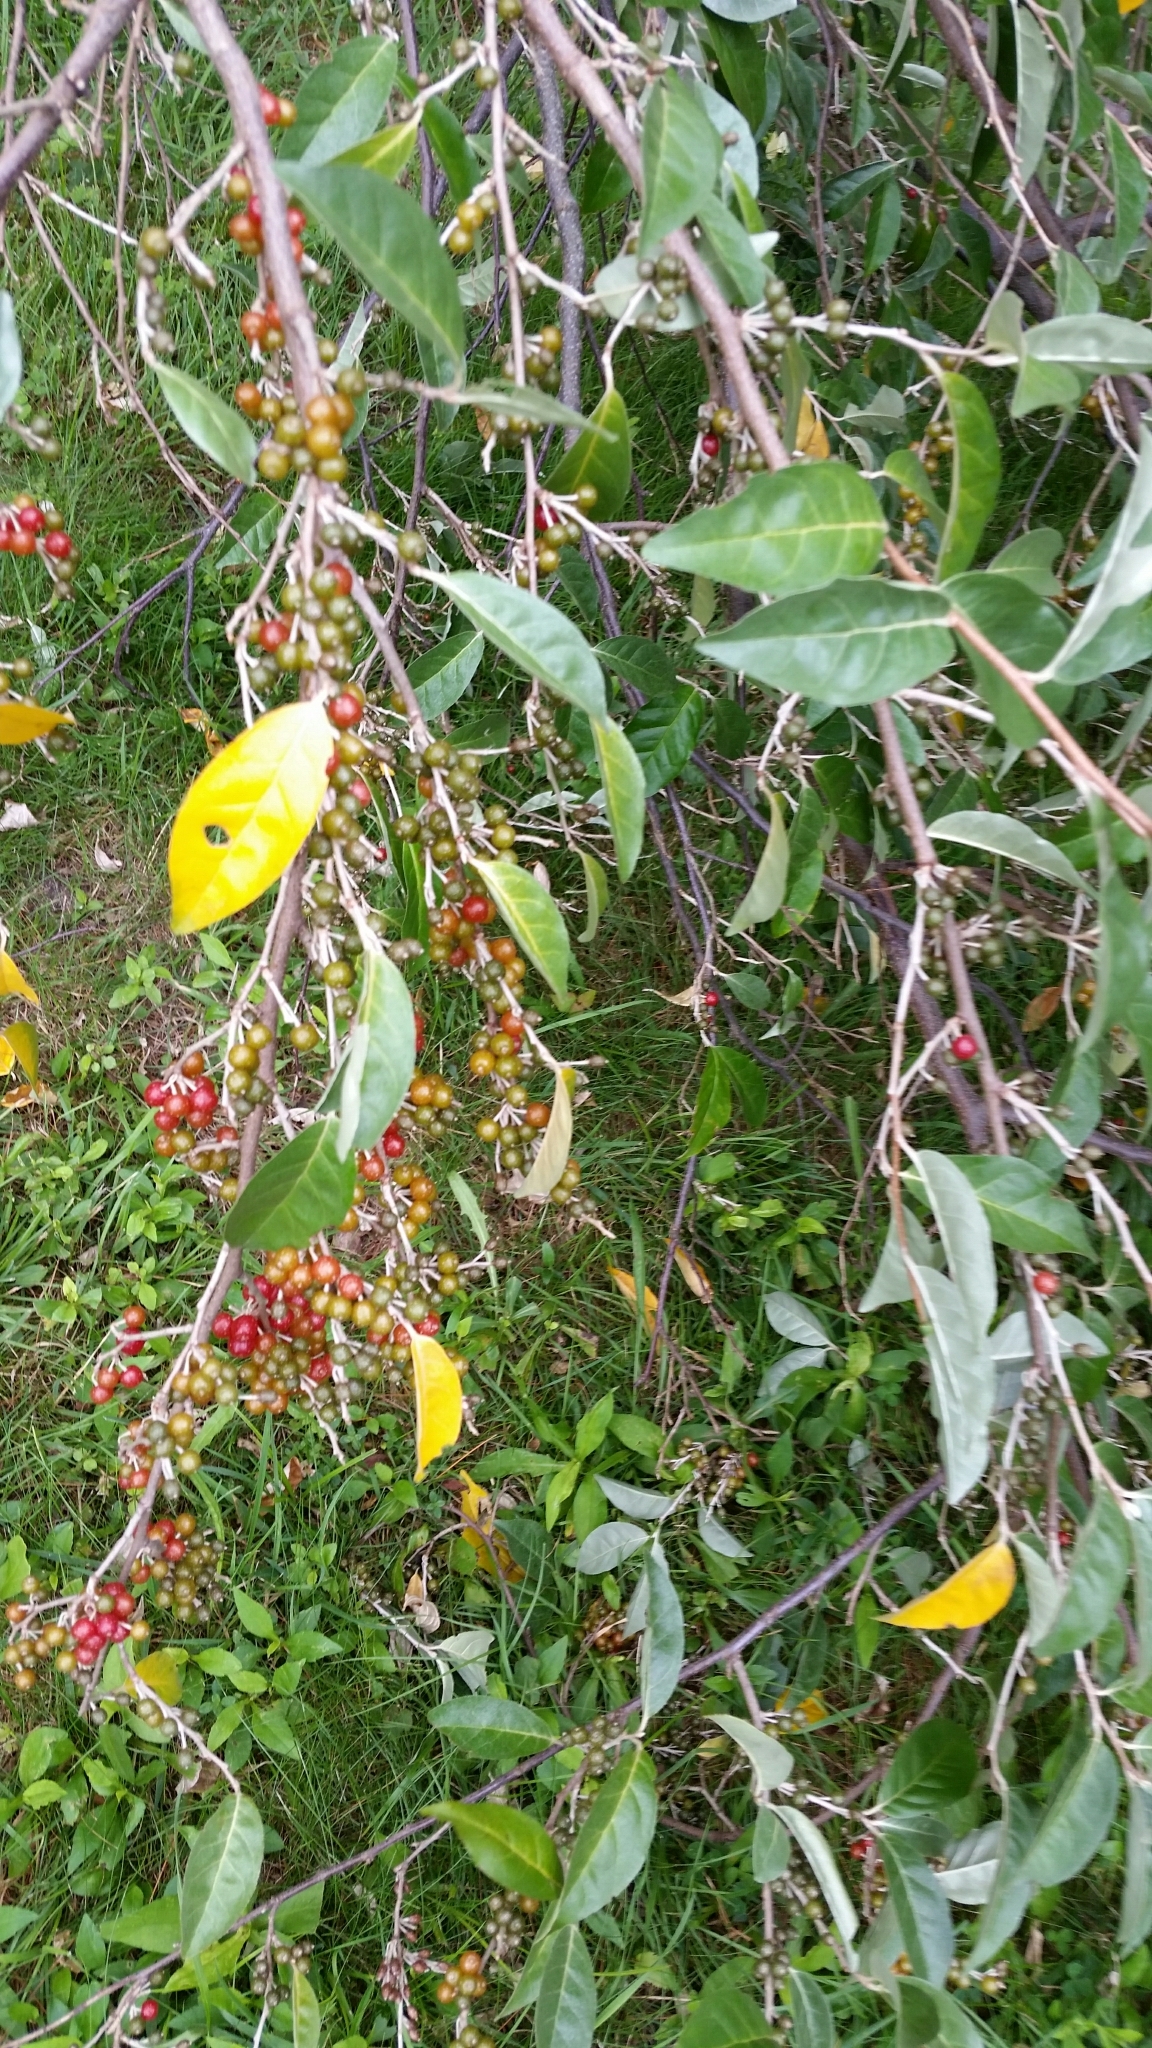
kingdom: Plantae
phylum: Tracheophyta
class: Magnoliopsida
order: Rosales
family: Elaeagnaceae
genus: Elaeagnus
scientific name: Elaeagnus umbellata
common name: Autumn olive
